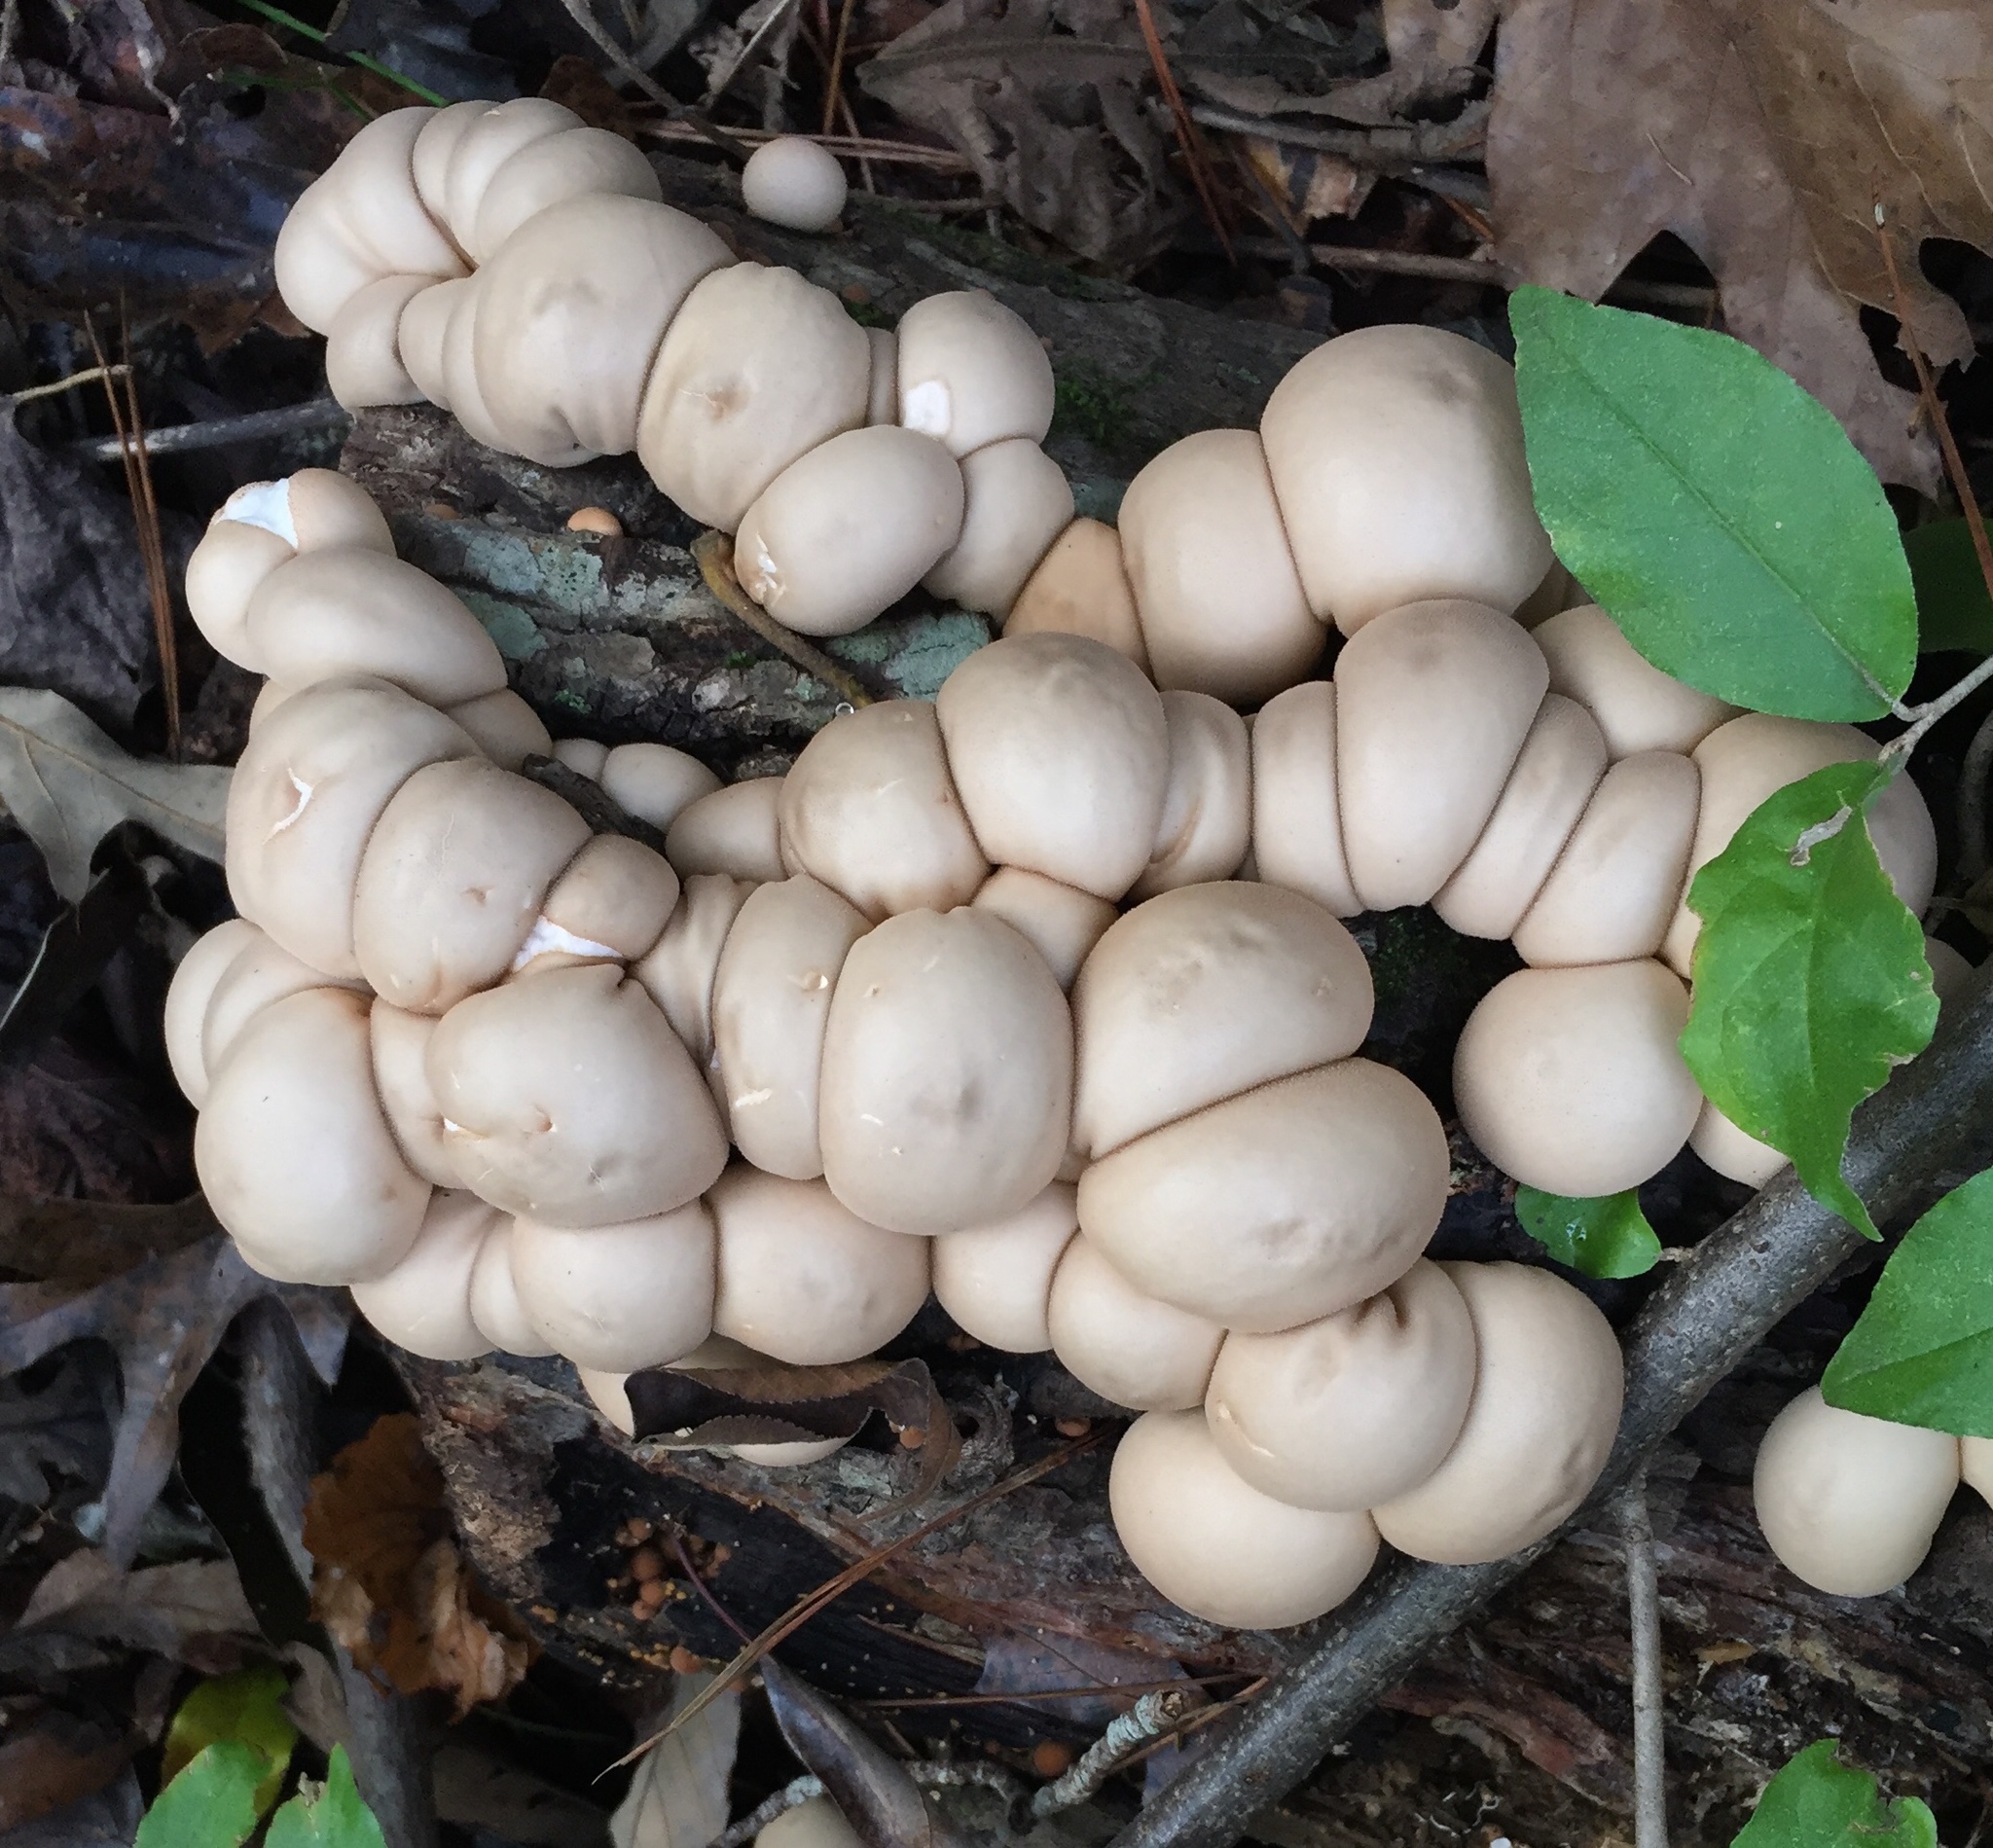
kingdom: Fungi
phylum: Basidiomycota
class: Agaricomycetes
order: Agaricales
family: Lycoperdaceae
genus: Apioperdon
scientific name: Apioperdon pyriforme
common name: Pear-shaped puffball
